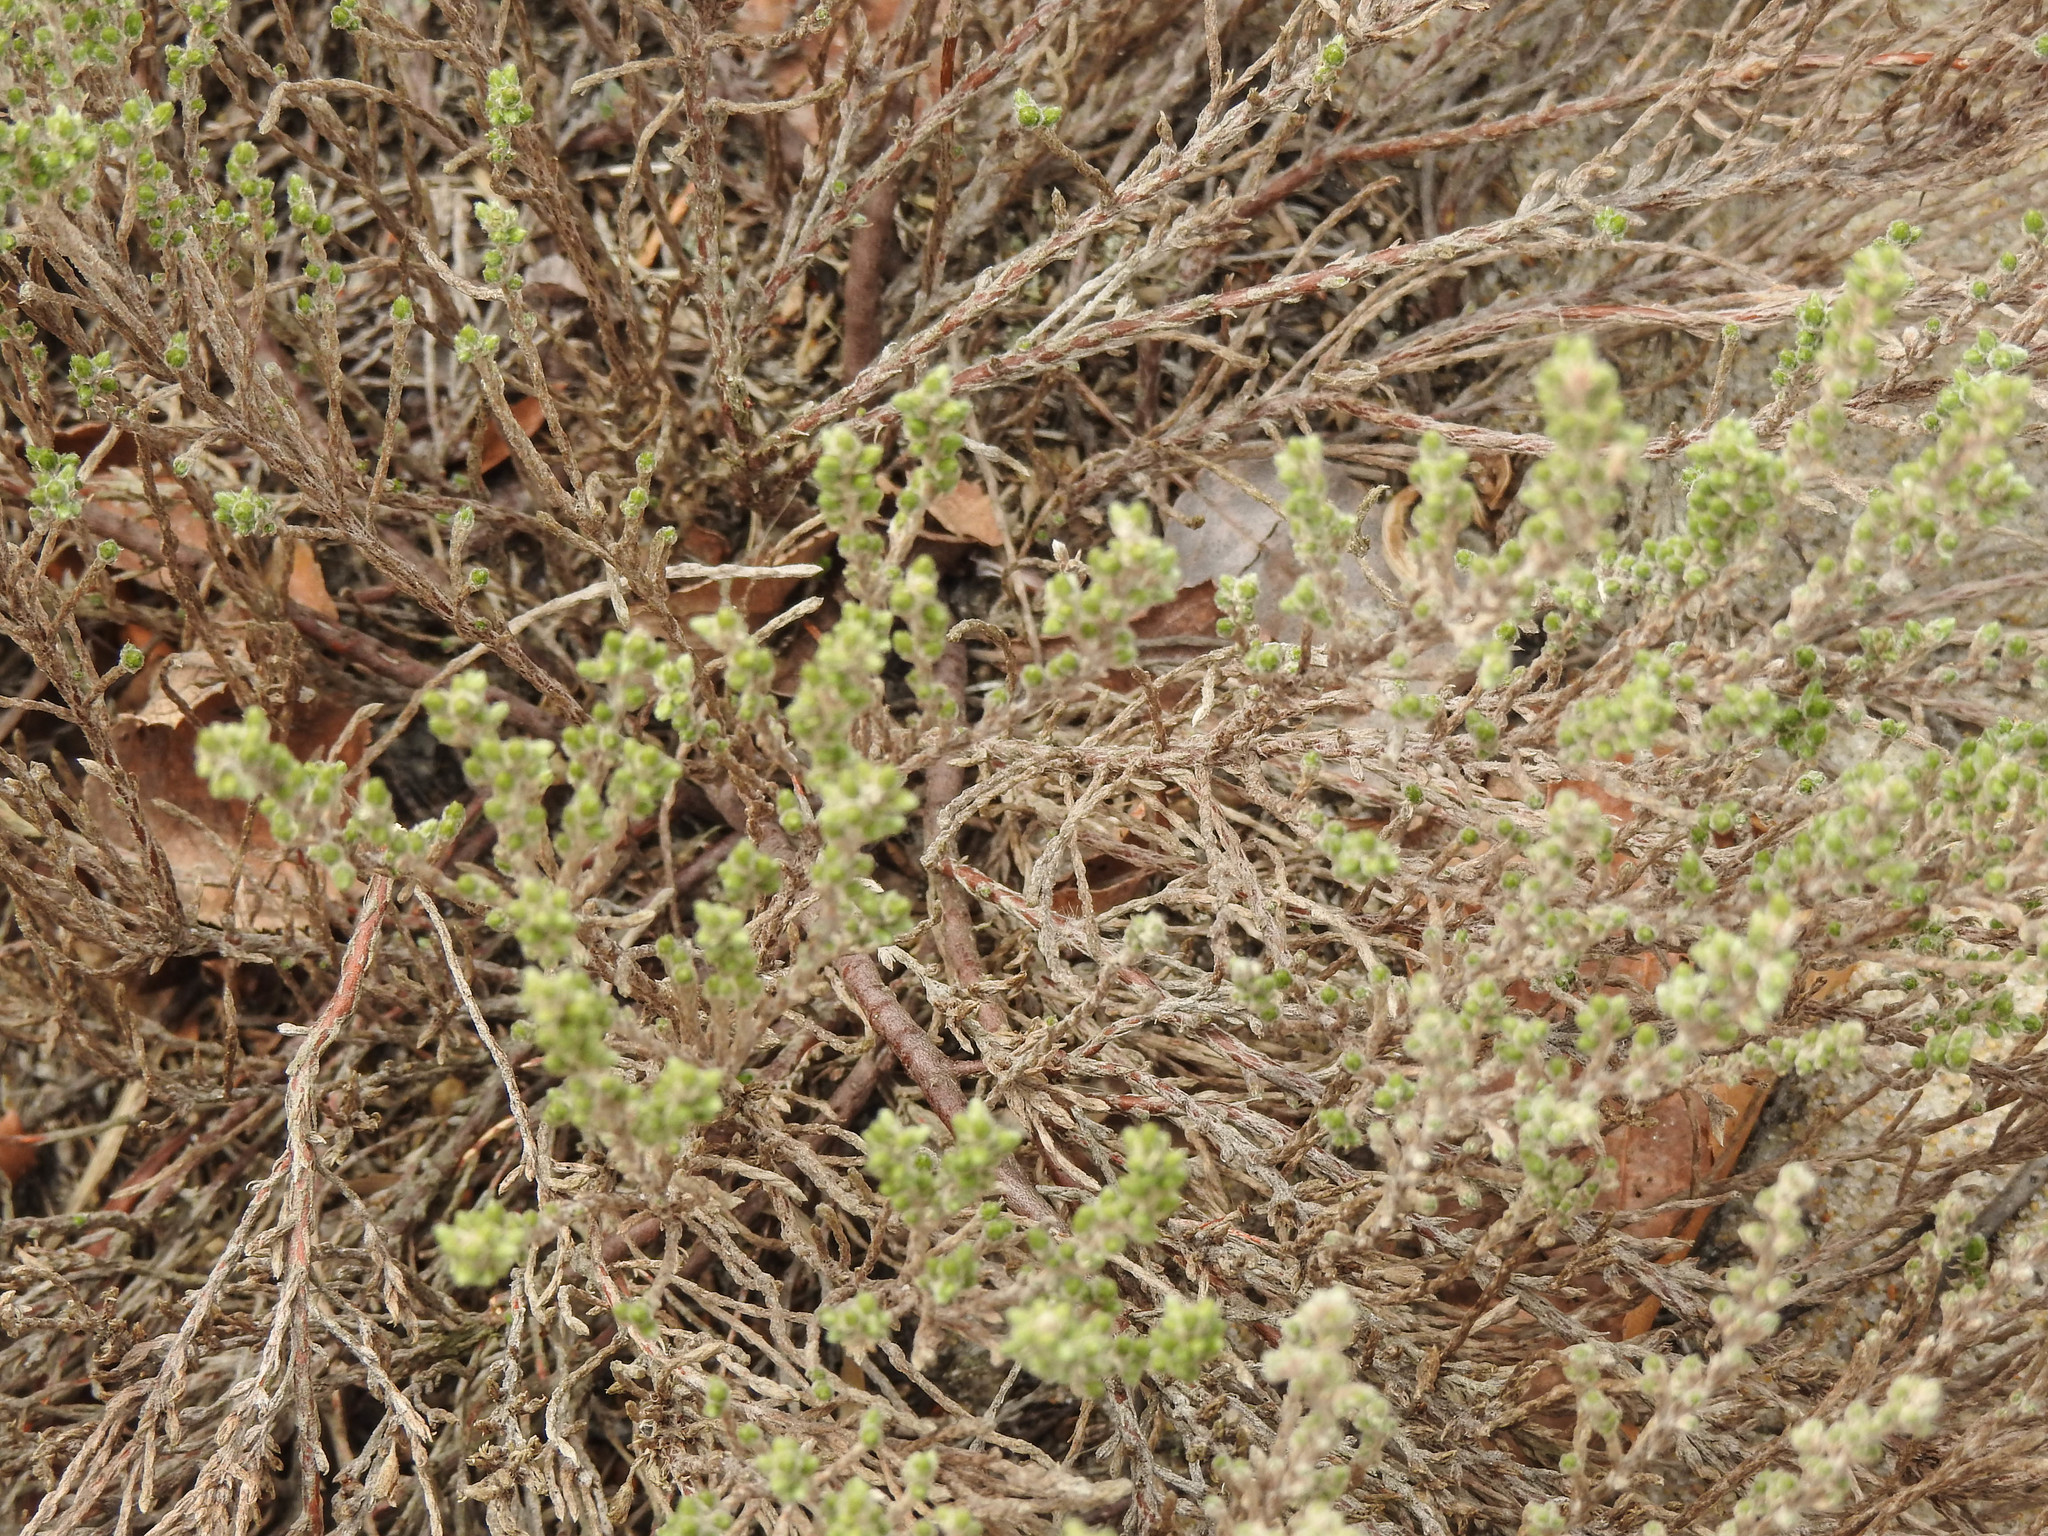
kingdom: Plantae
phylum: Tracheophyta
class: Magnoliopsida
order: Malvales
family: Cistaceae
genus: Hudsonia
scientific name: Hudsonia tomentosa
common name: Beach-heath
